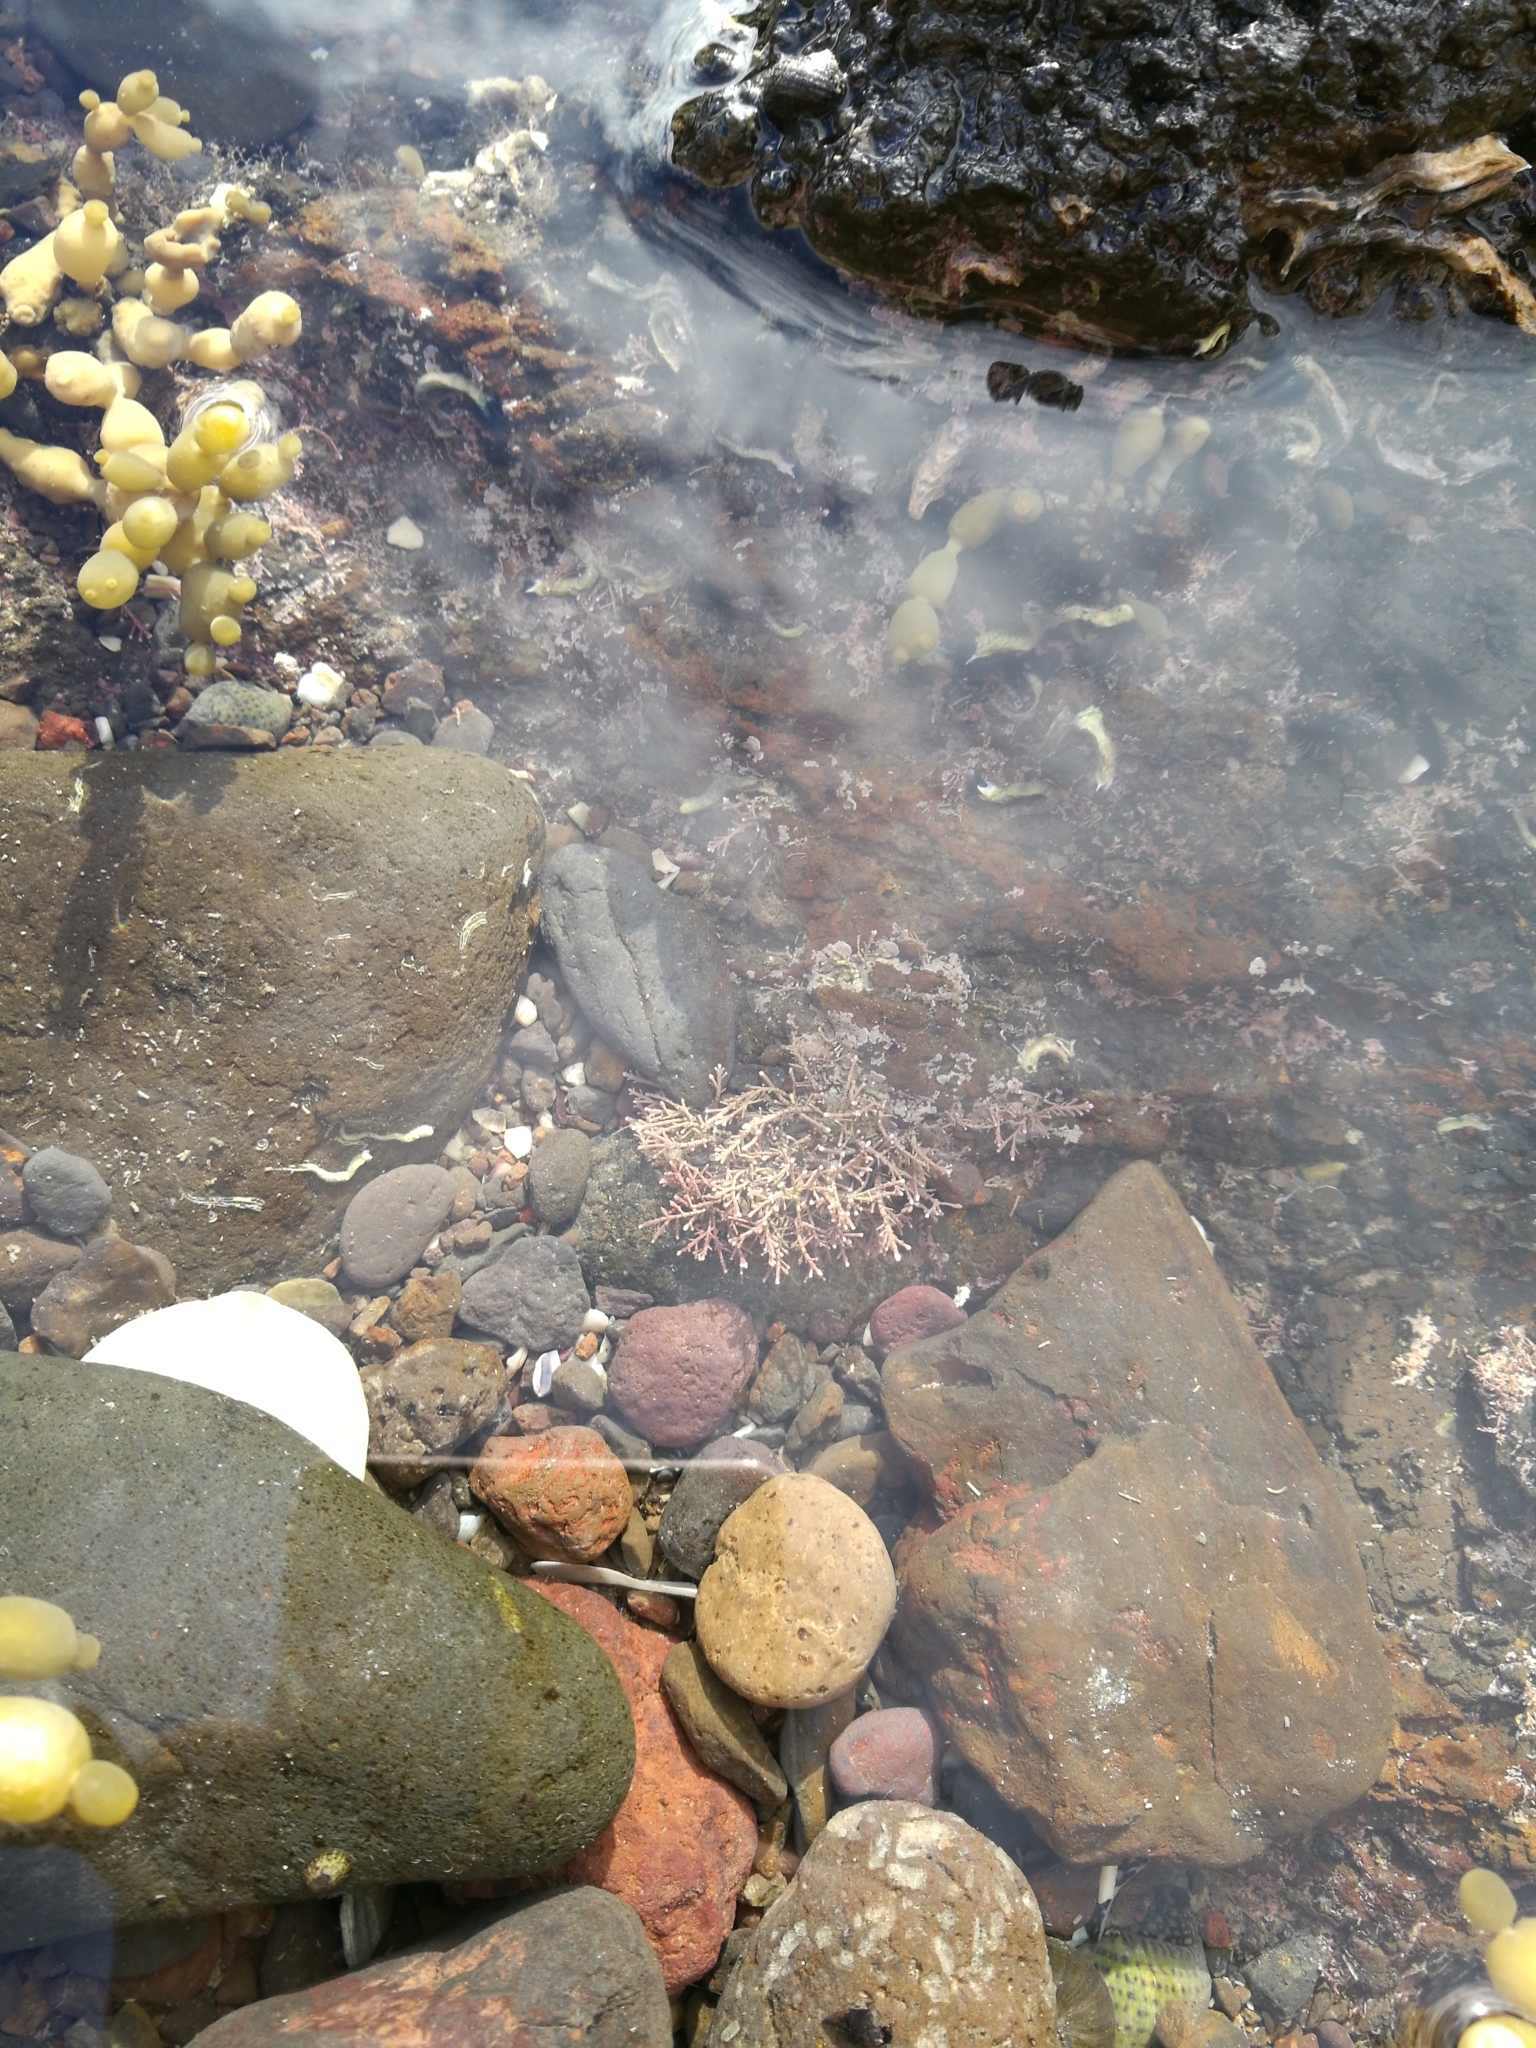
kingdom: Plantae
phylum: Rhodophyta
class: Florideophyceae
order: Corallinales
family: Corallinaceae
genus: Corallina
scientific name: Corallina officinalis
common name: Coral weed
